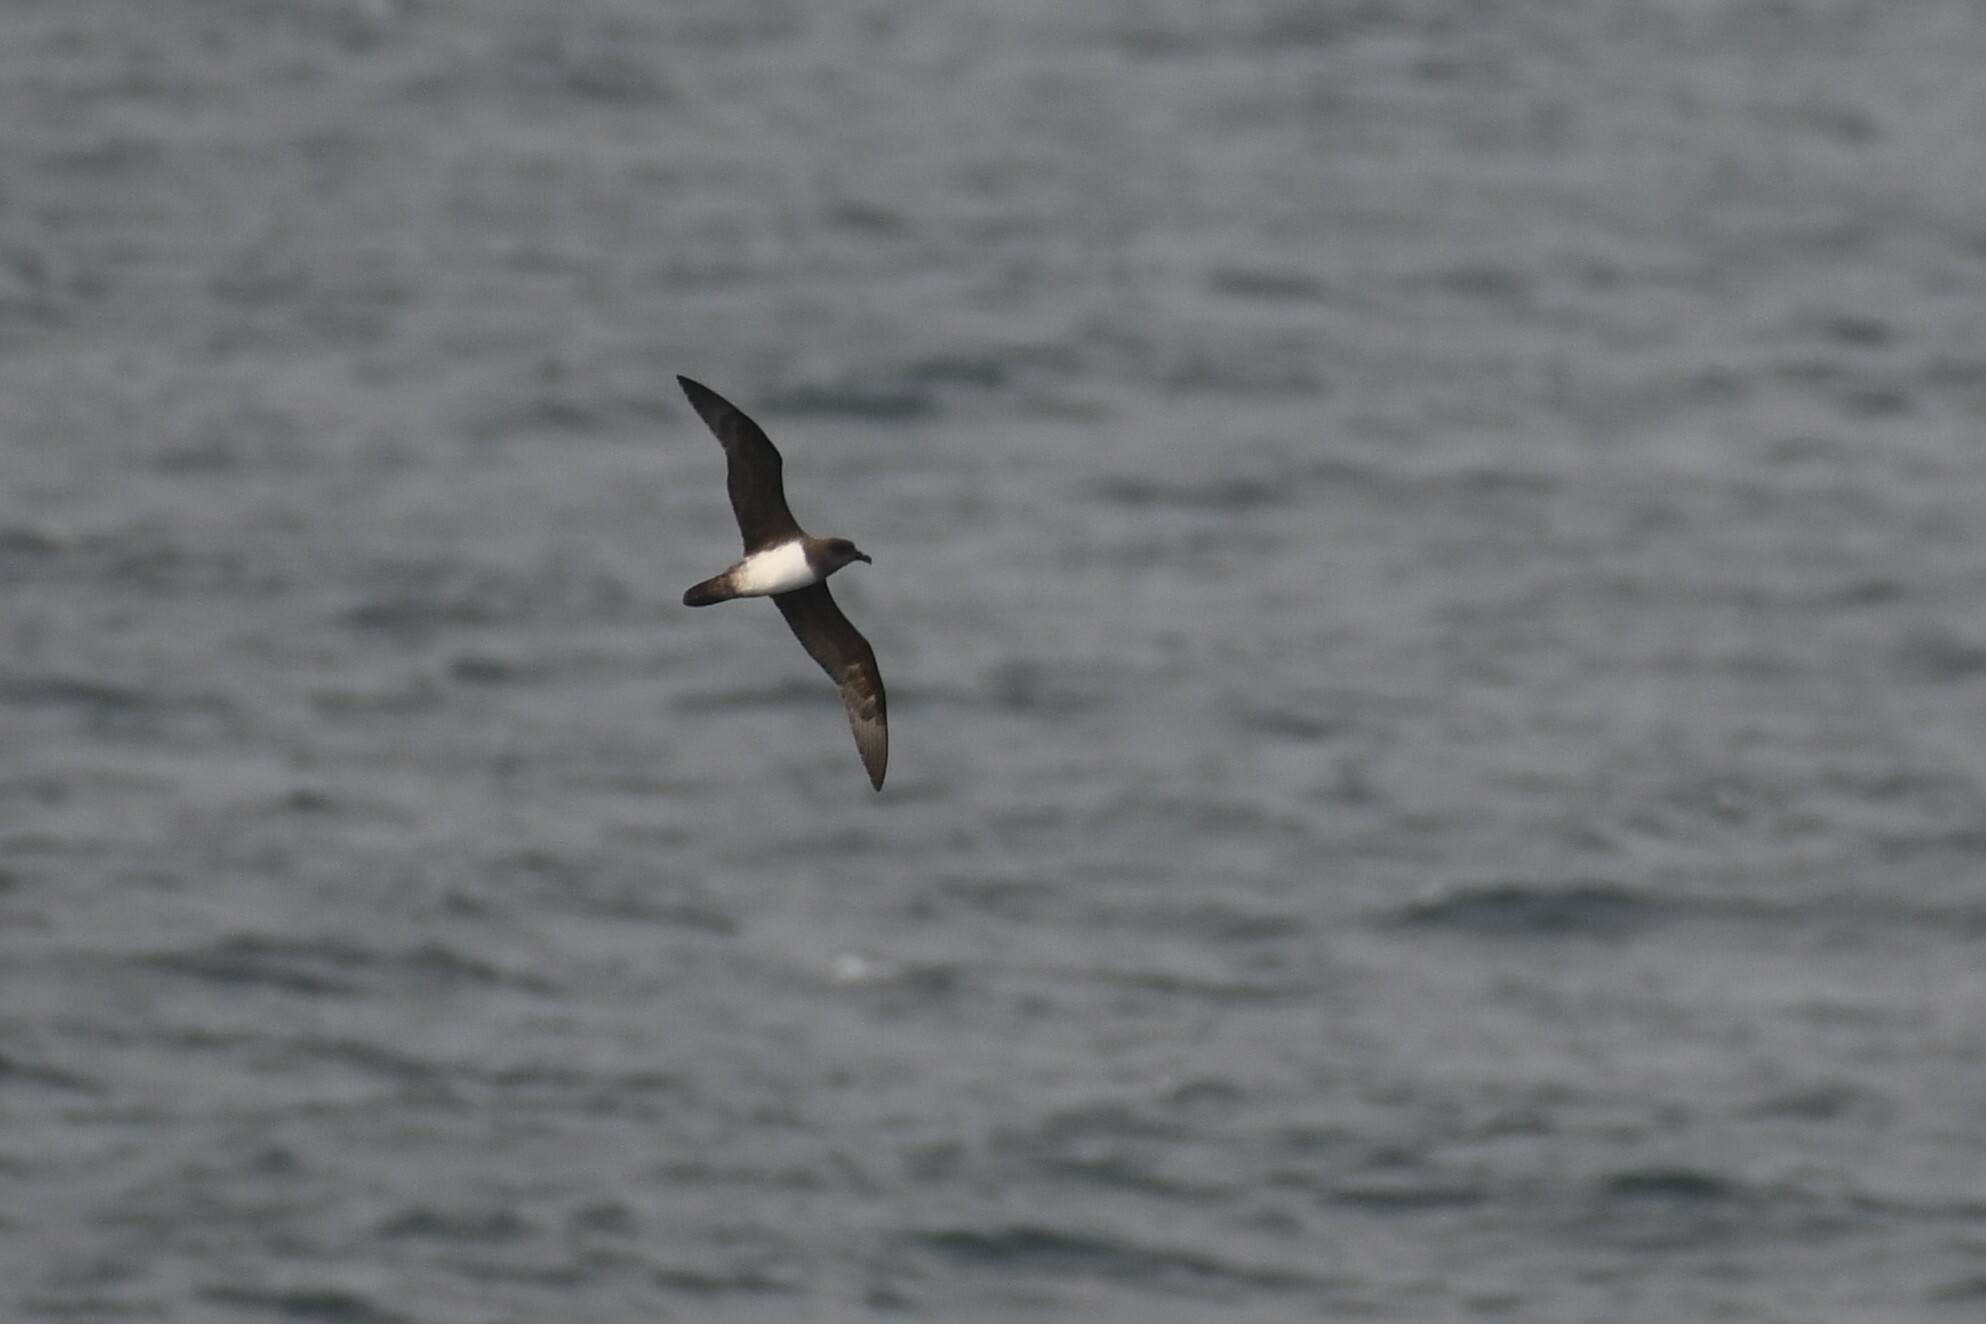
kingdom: Animalia
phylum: Chordata
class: Aves
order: Procellariiformes
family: Procellariidae
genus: Pterodroma
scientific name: Pterodroma incerta
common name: Atlantic petrel
